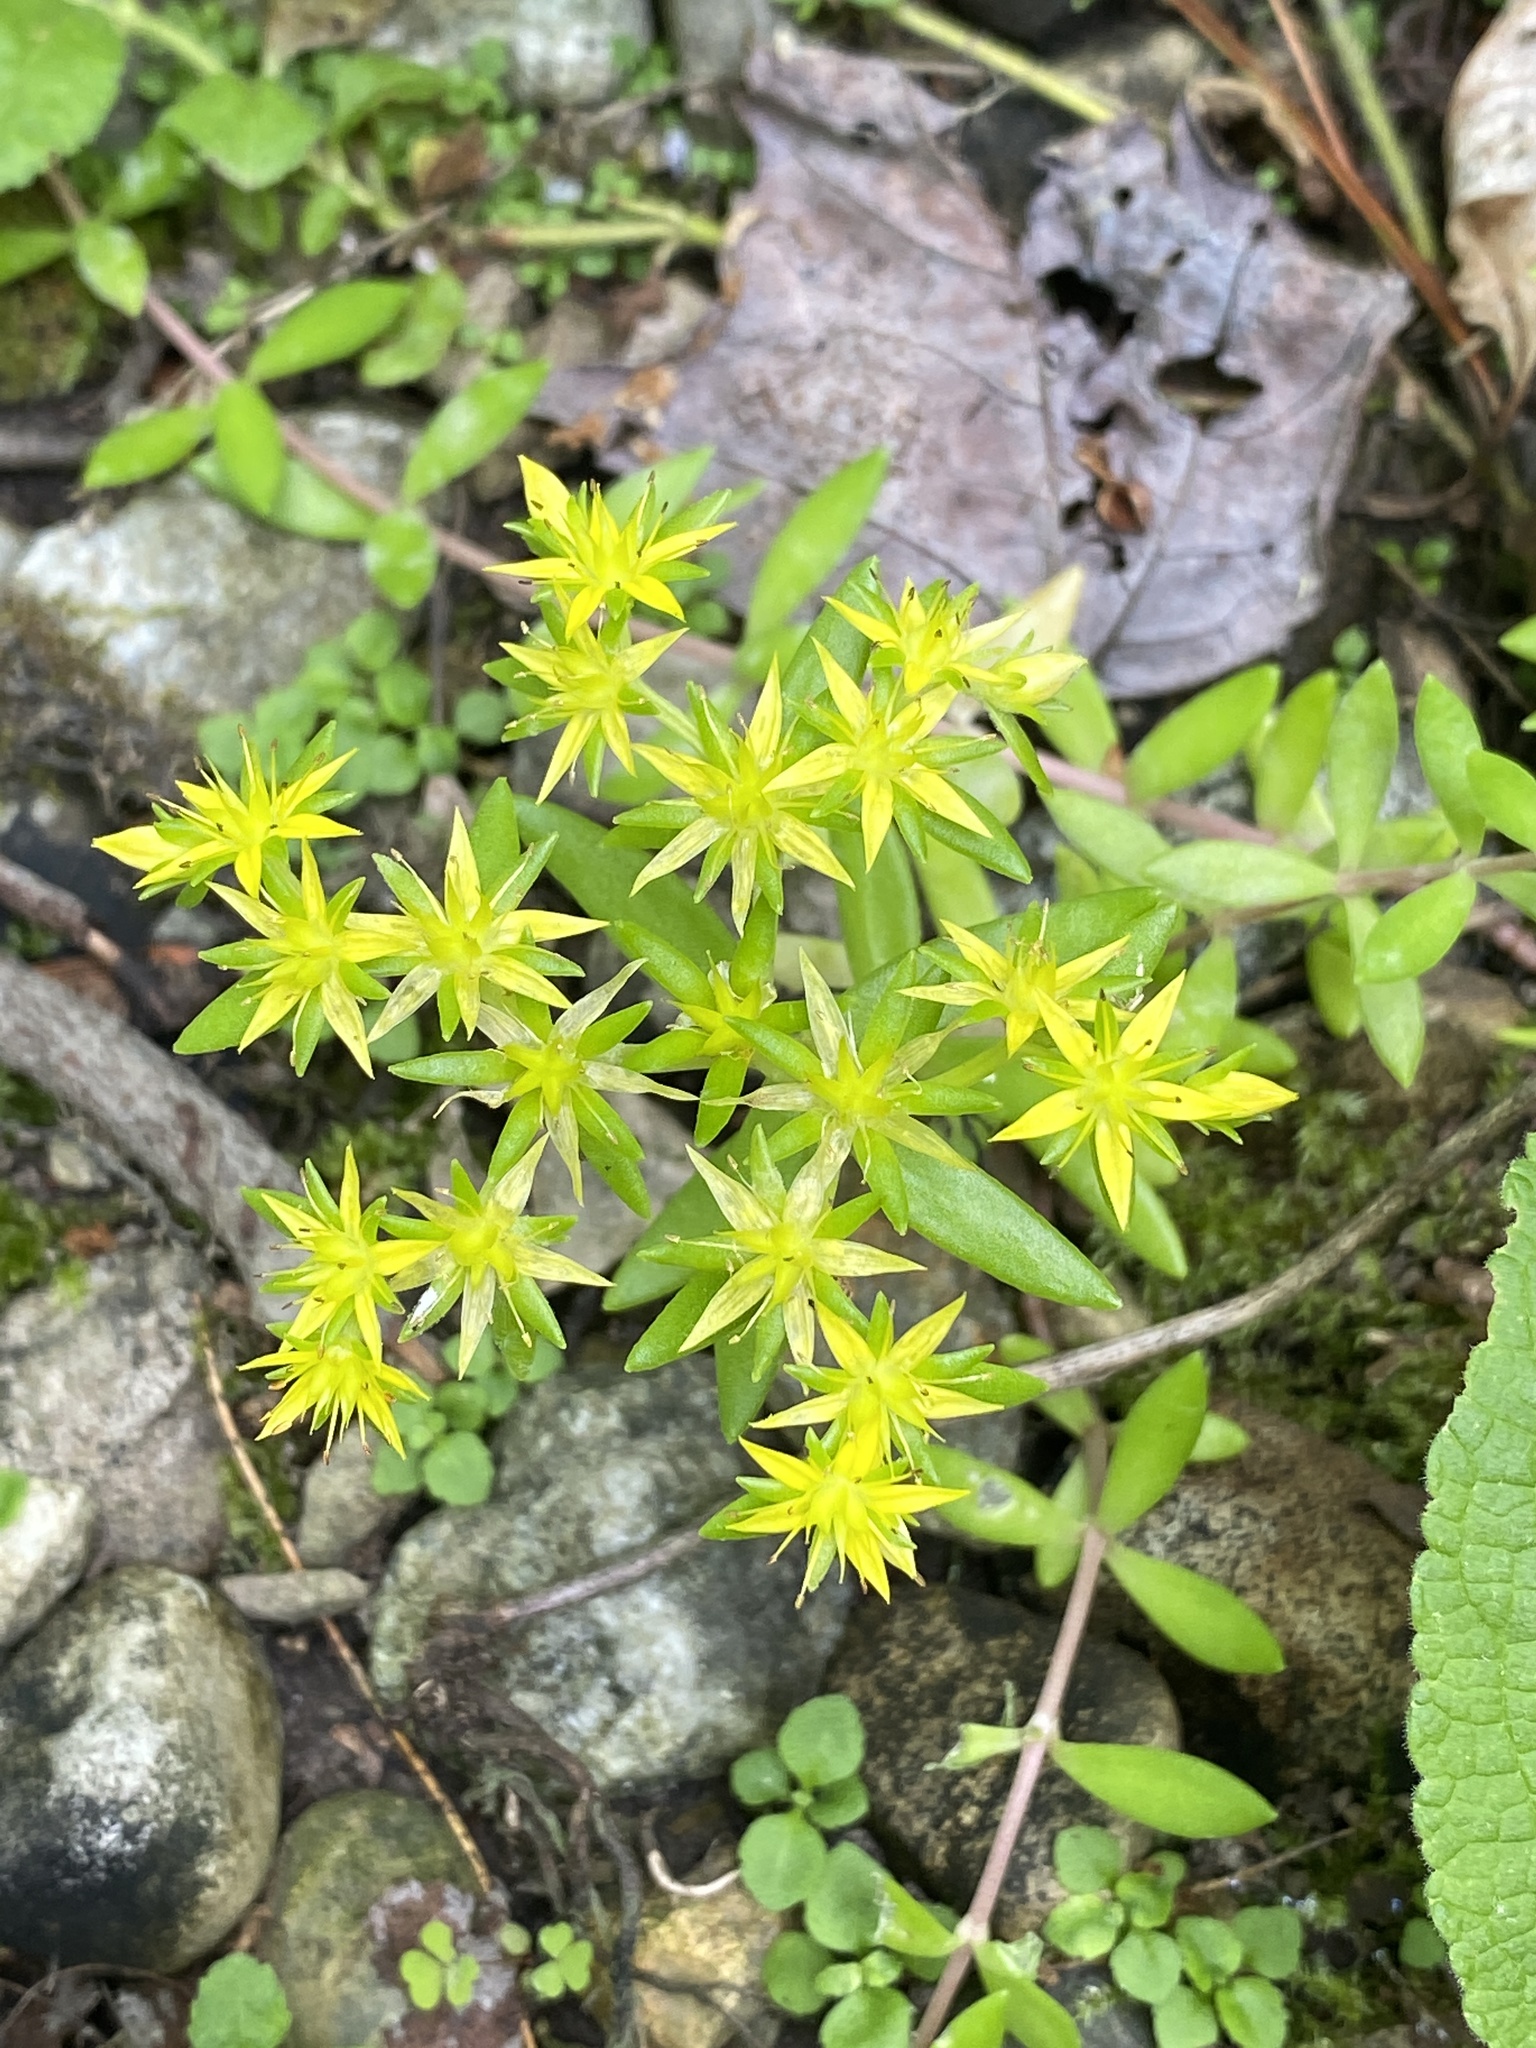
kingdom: Plantae
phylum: Tracheophyta
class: Magnoliopsida
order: Saxifragales
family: Crassulaceae
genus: Sedum
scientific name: Sedum sarmentosum
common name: Stringy stonecrop
